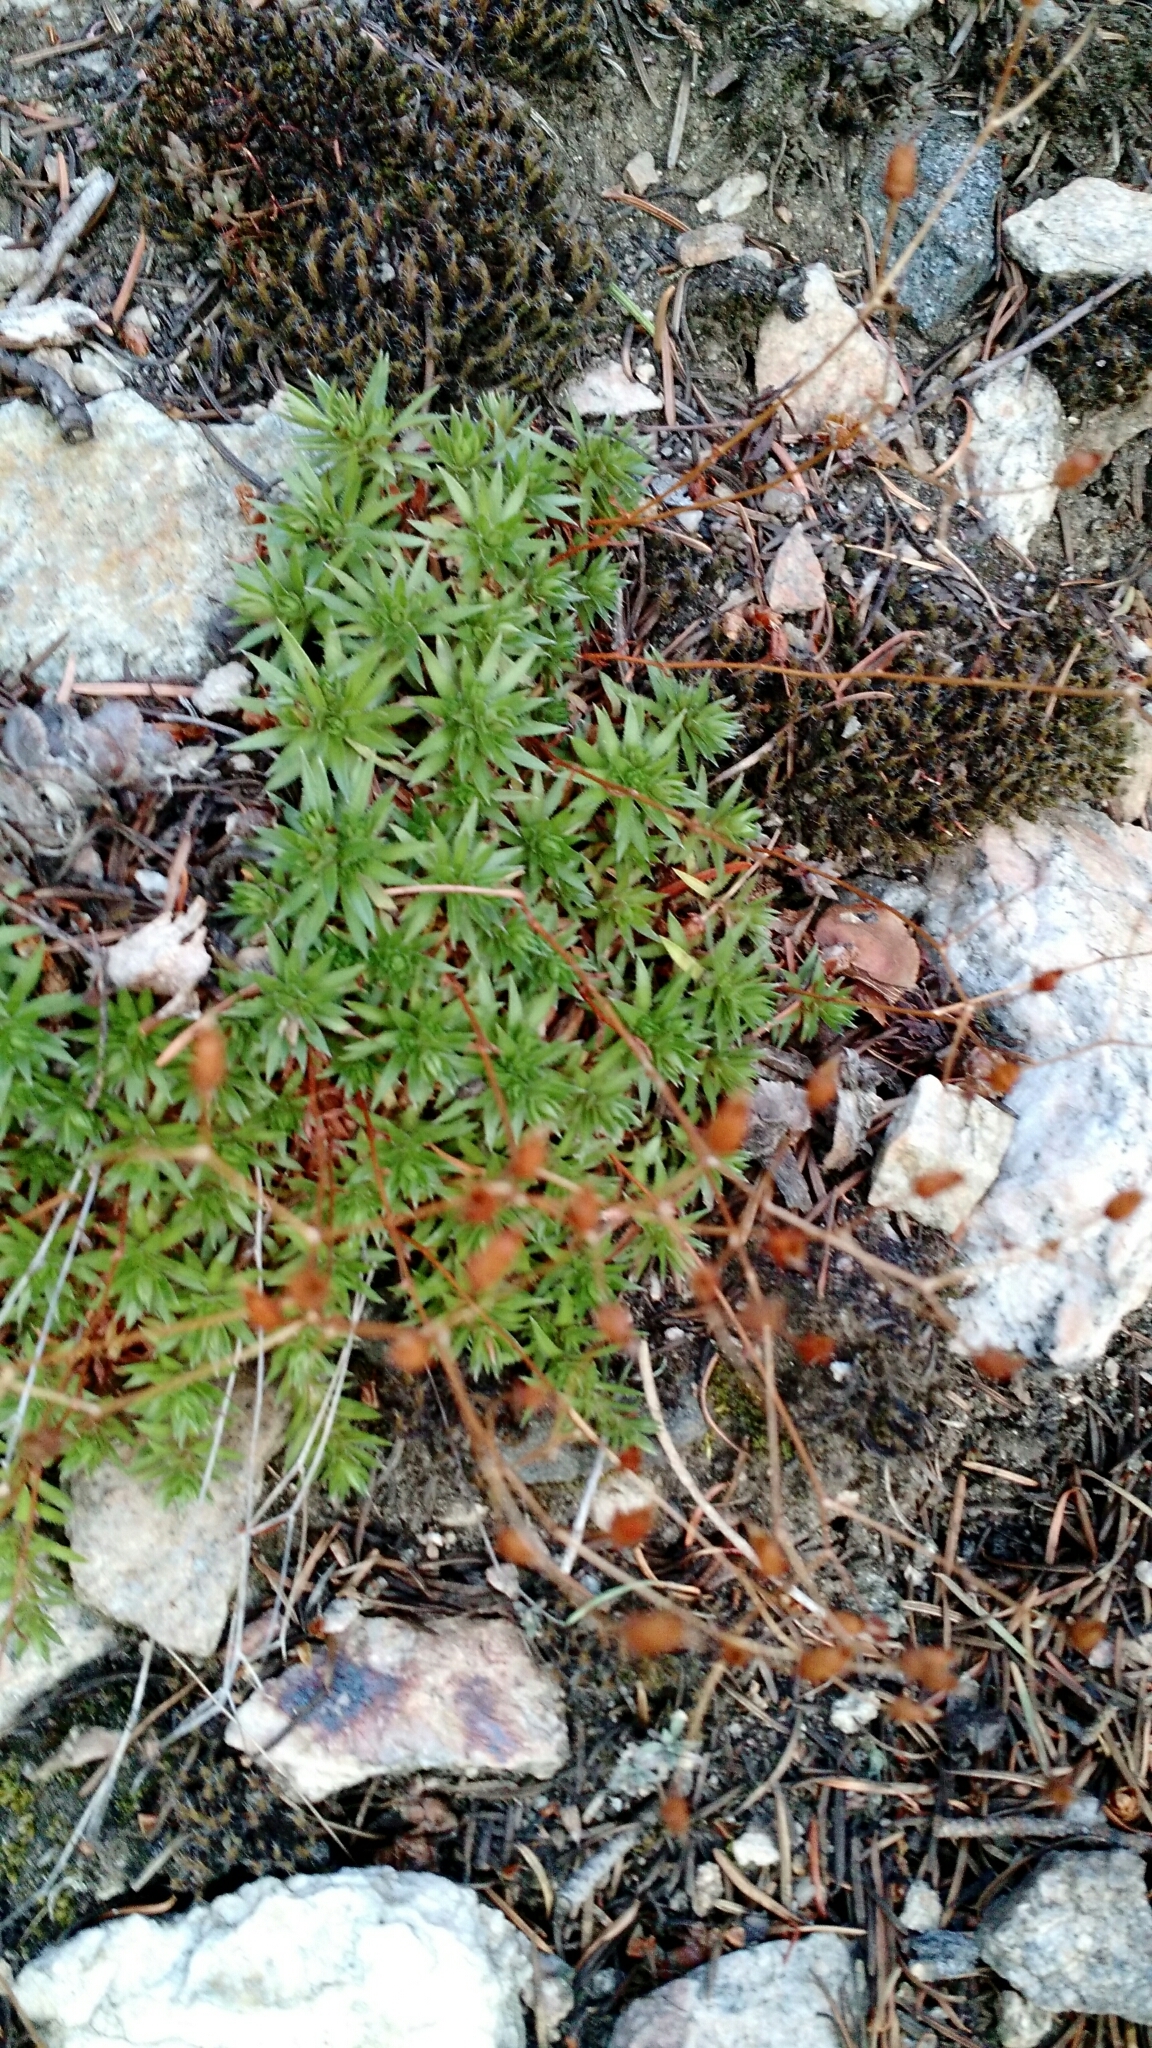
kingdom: Plantae
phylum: Tracheophyta
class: Magnoliopsida
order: Saxifragales
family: Saxifragaceae
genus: Saxifraga
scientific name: Saxifraga bronchialis
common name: Matted saxifrage
